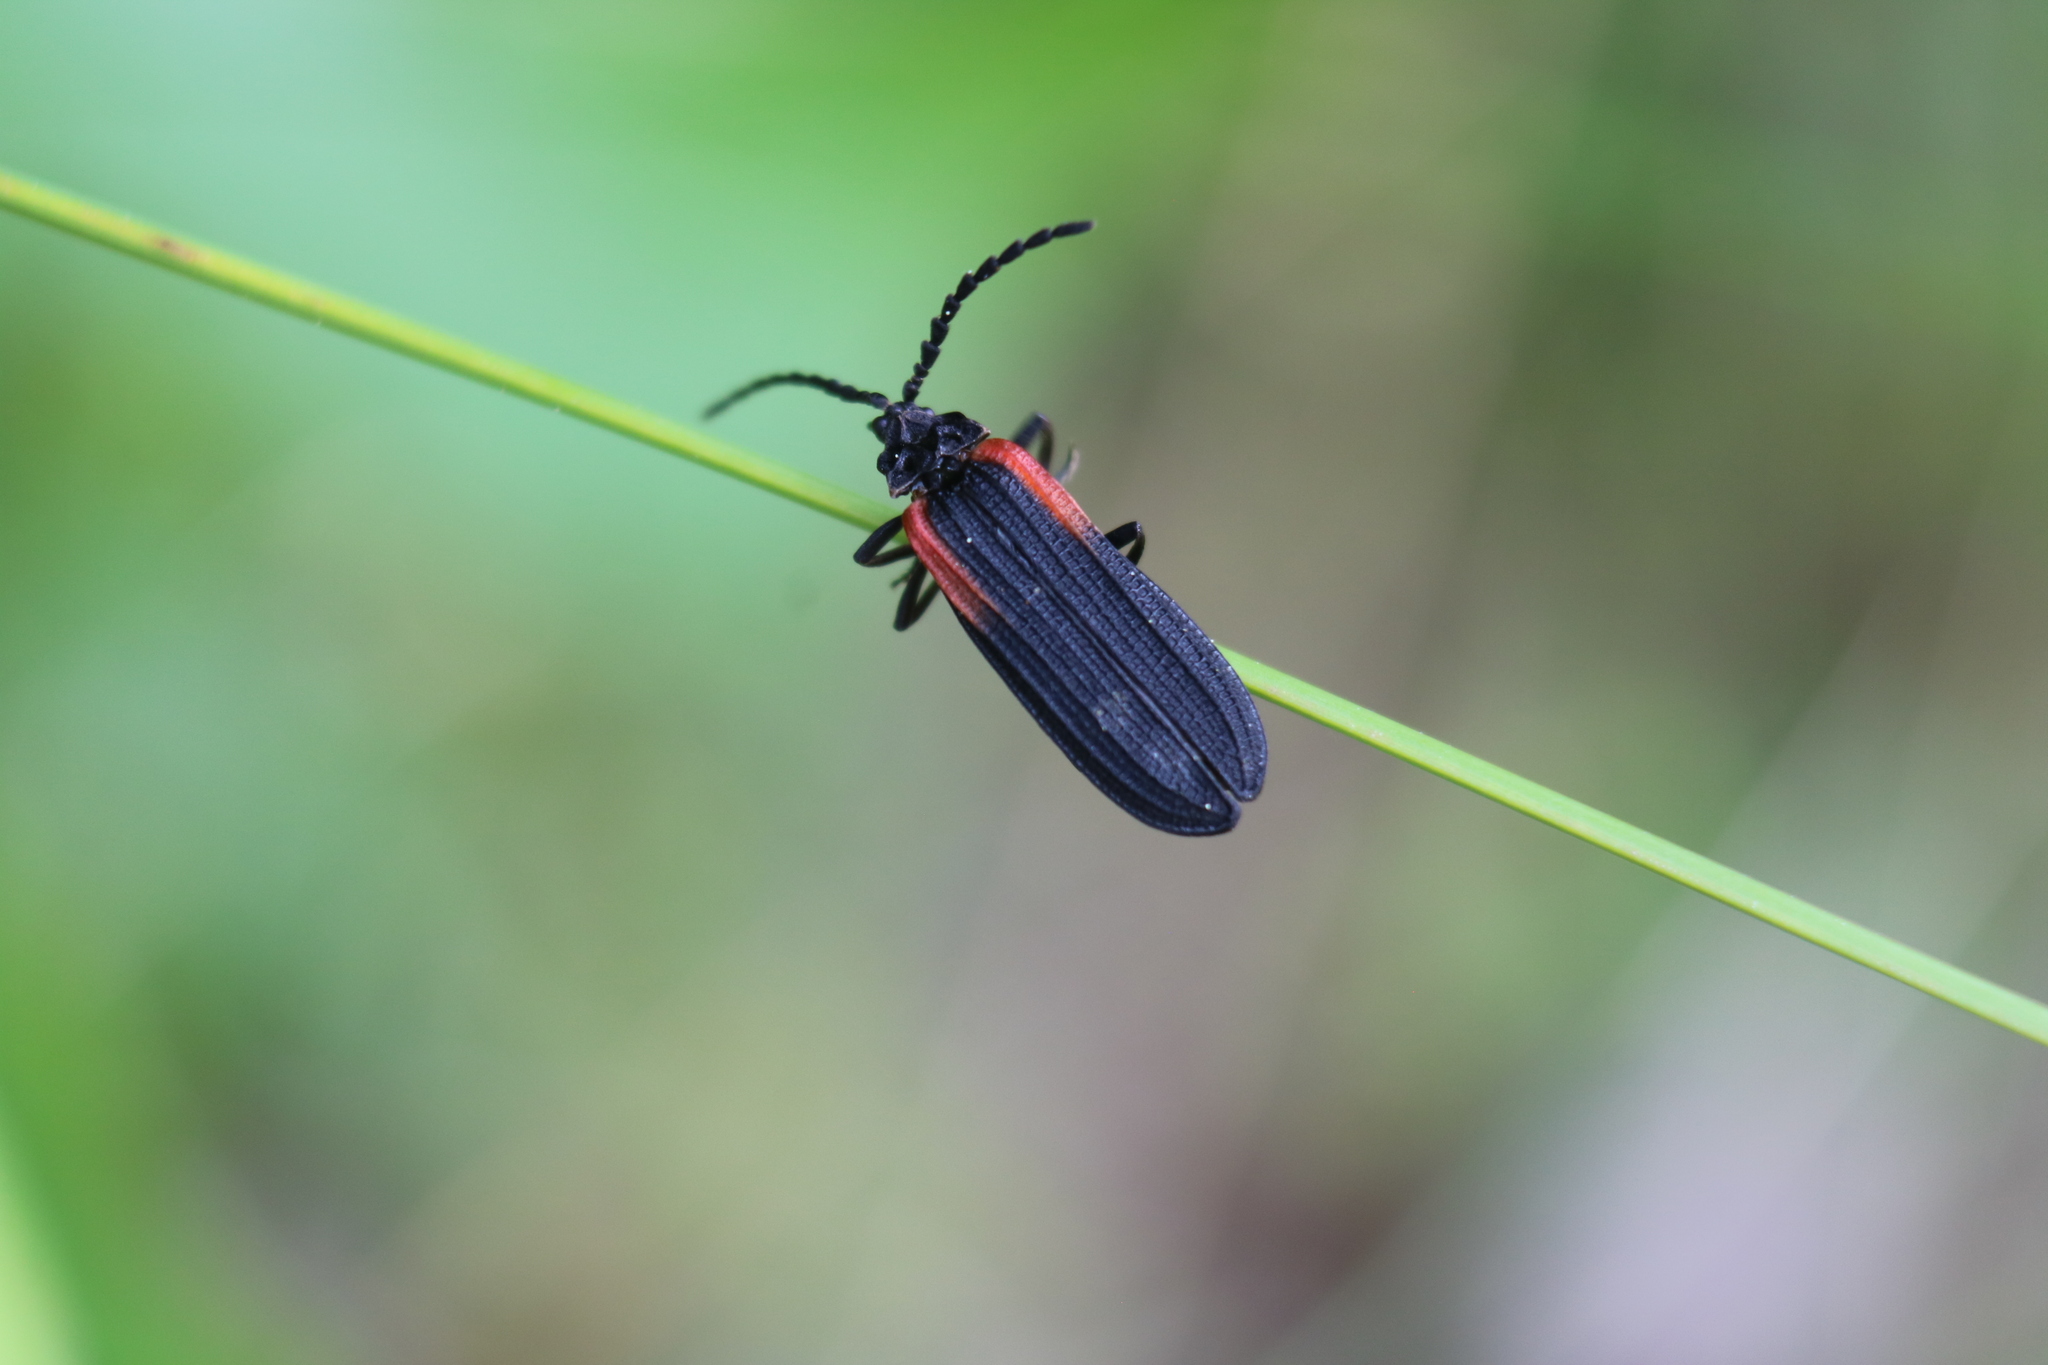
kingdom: Animalia
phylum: Arthropoda
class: Insecta
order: Coleoptera
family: Lycidae
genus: Greenarus
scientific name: Greenarus thoracicus
